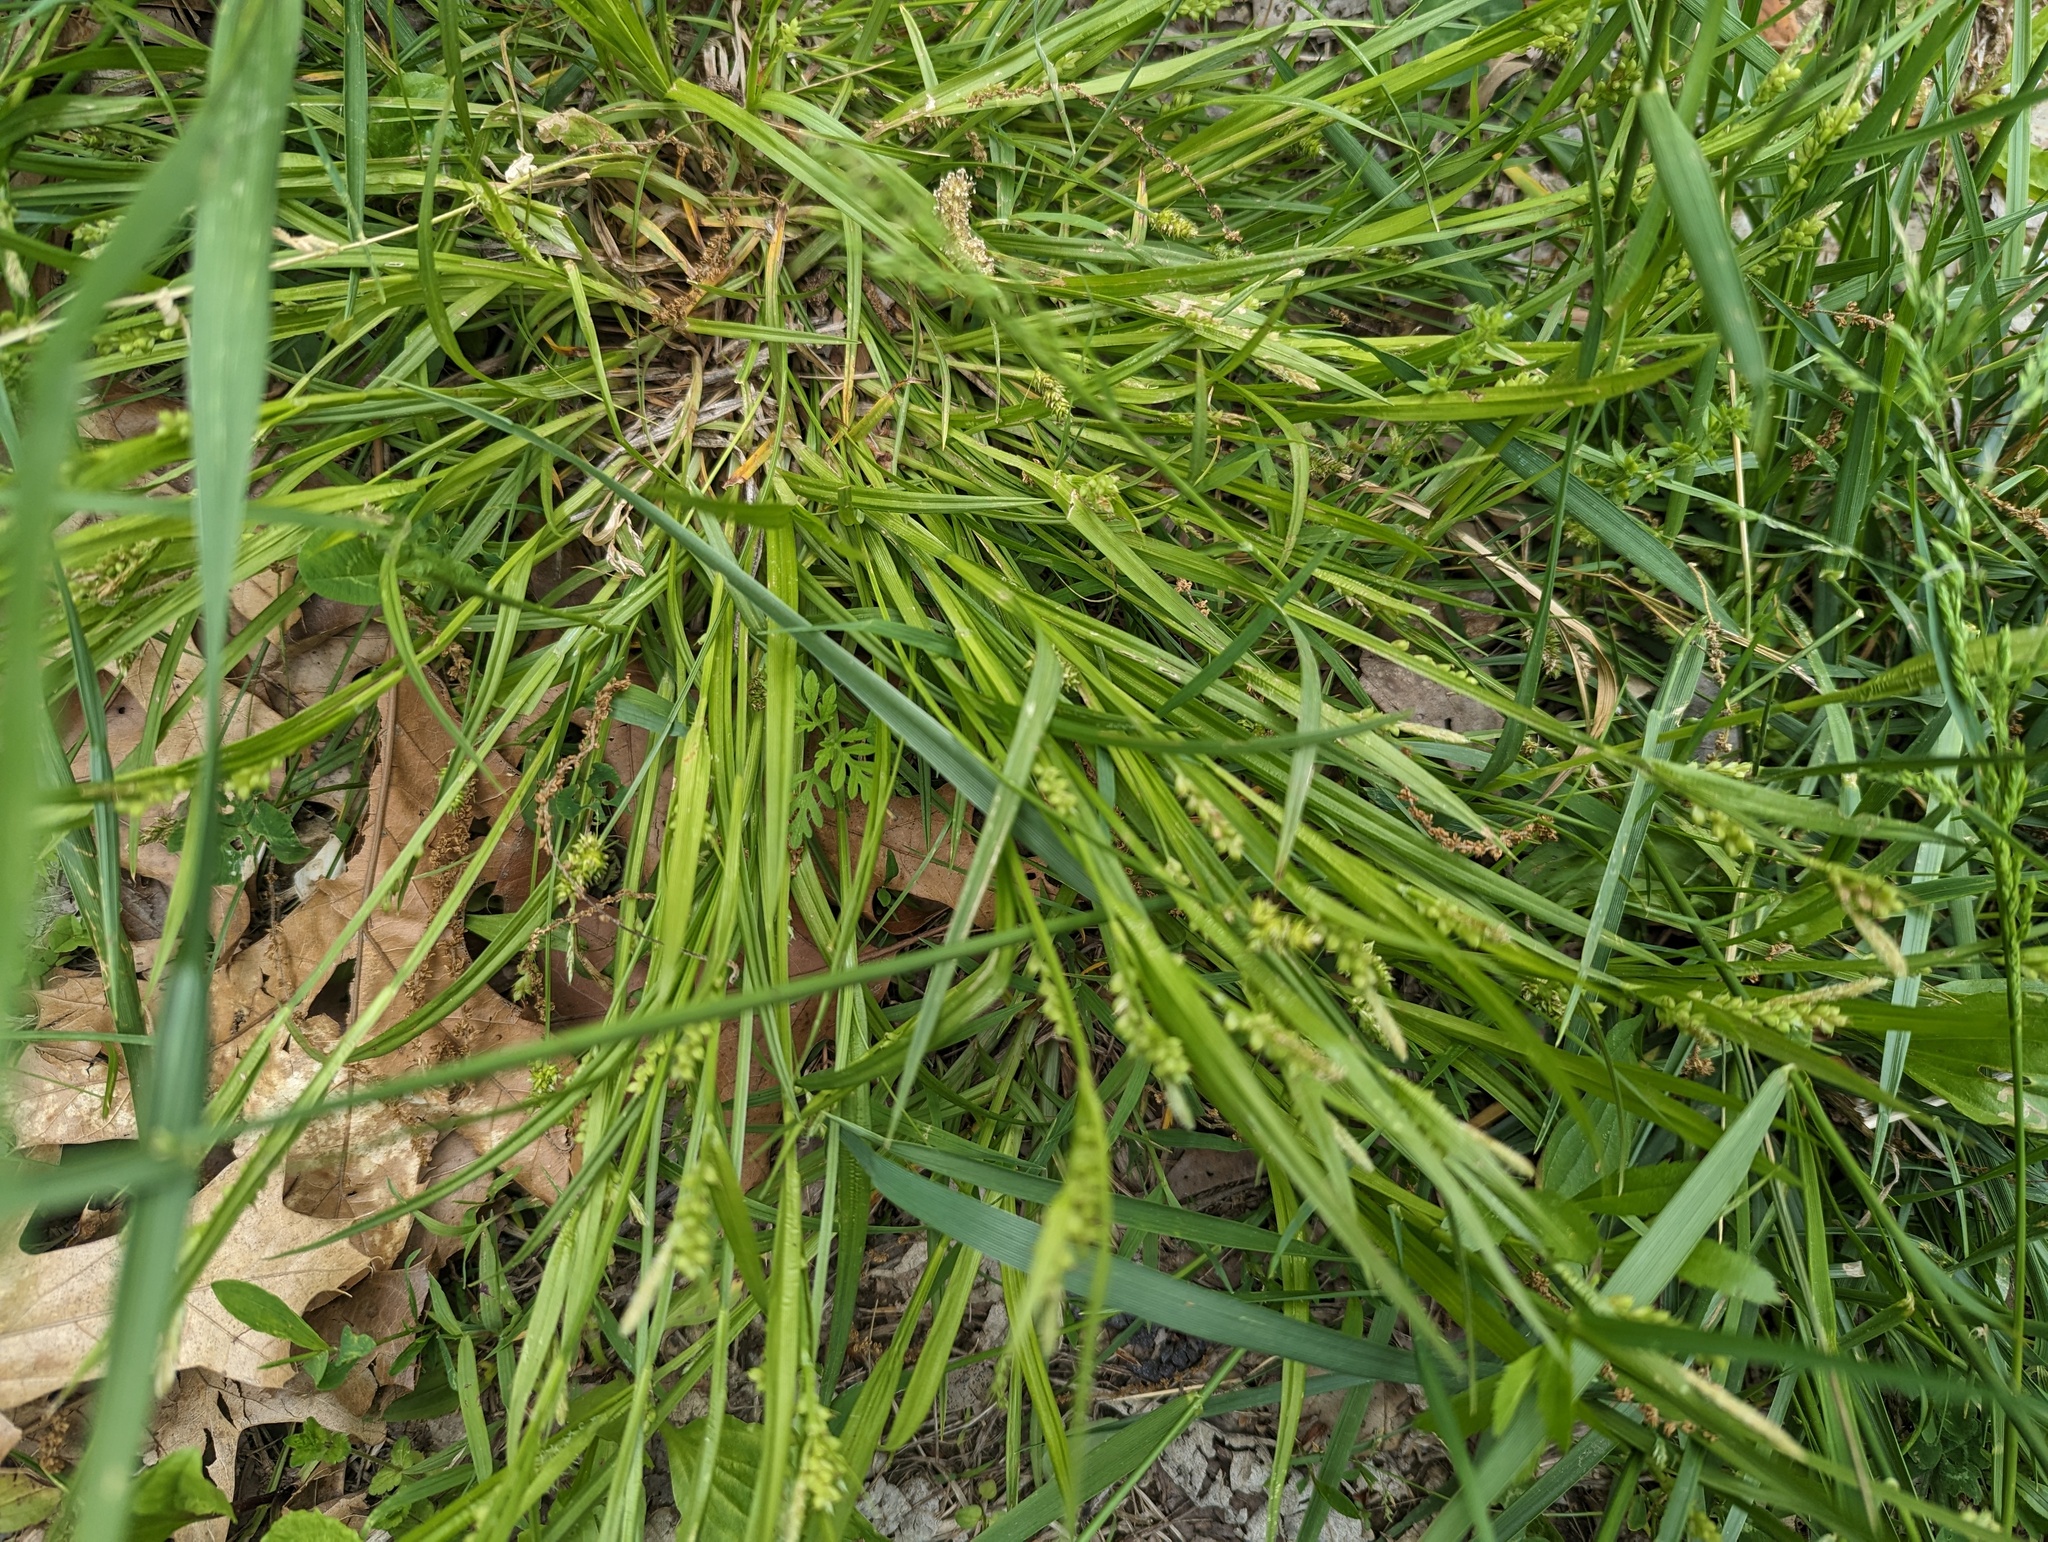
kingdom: Plantae
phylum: Tracheophyta
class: Liliopsida
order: Poales
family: Cyperaceae
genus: Carex
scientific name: Carex blanda
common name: Bland sedge
